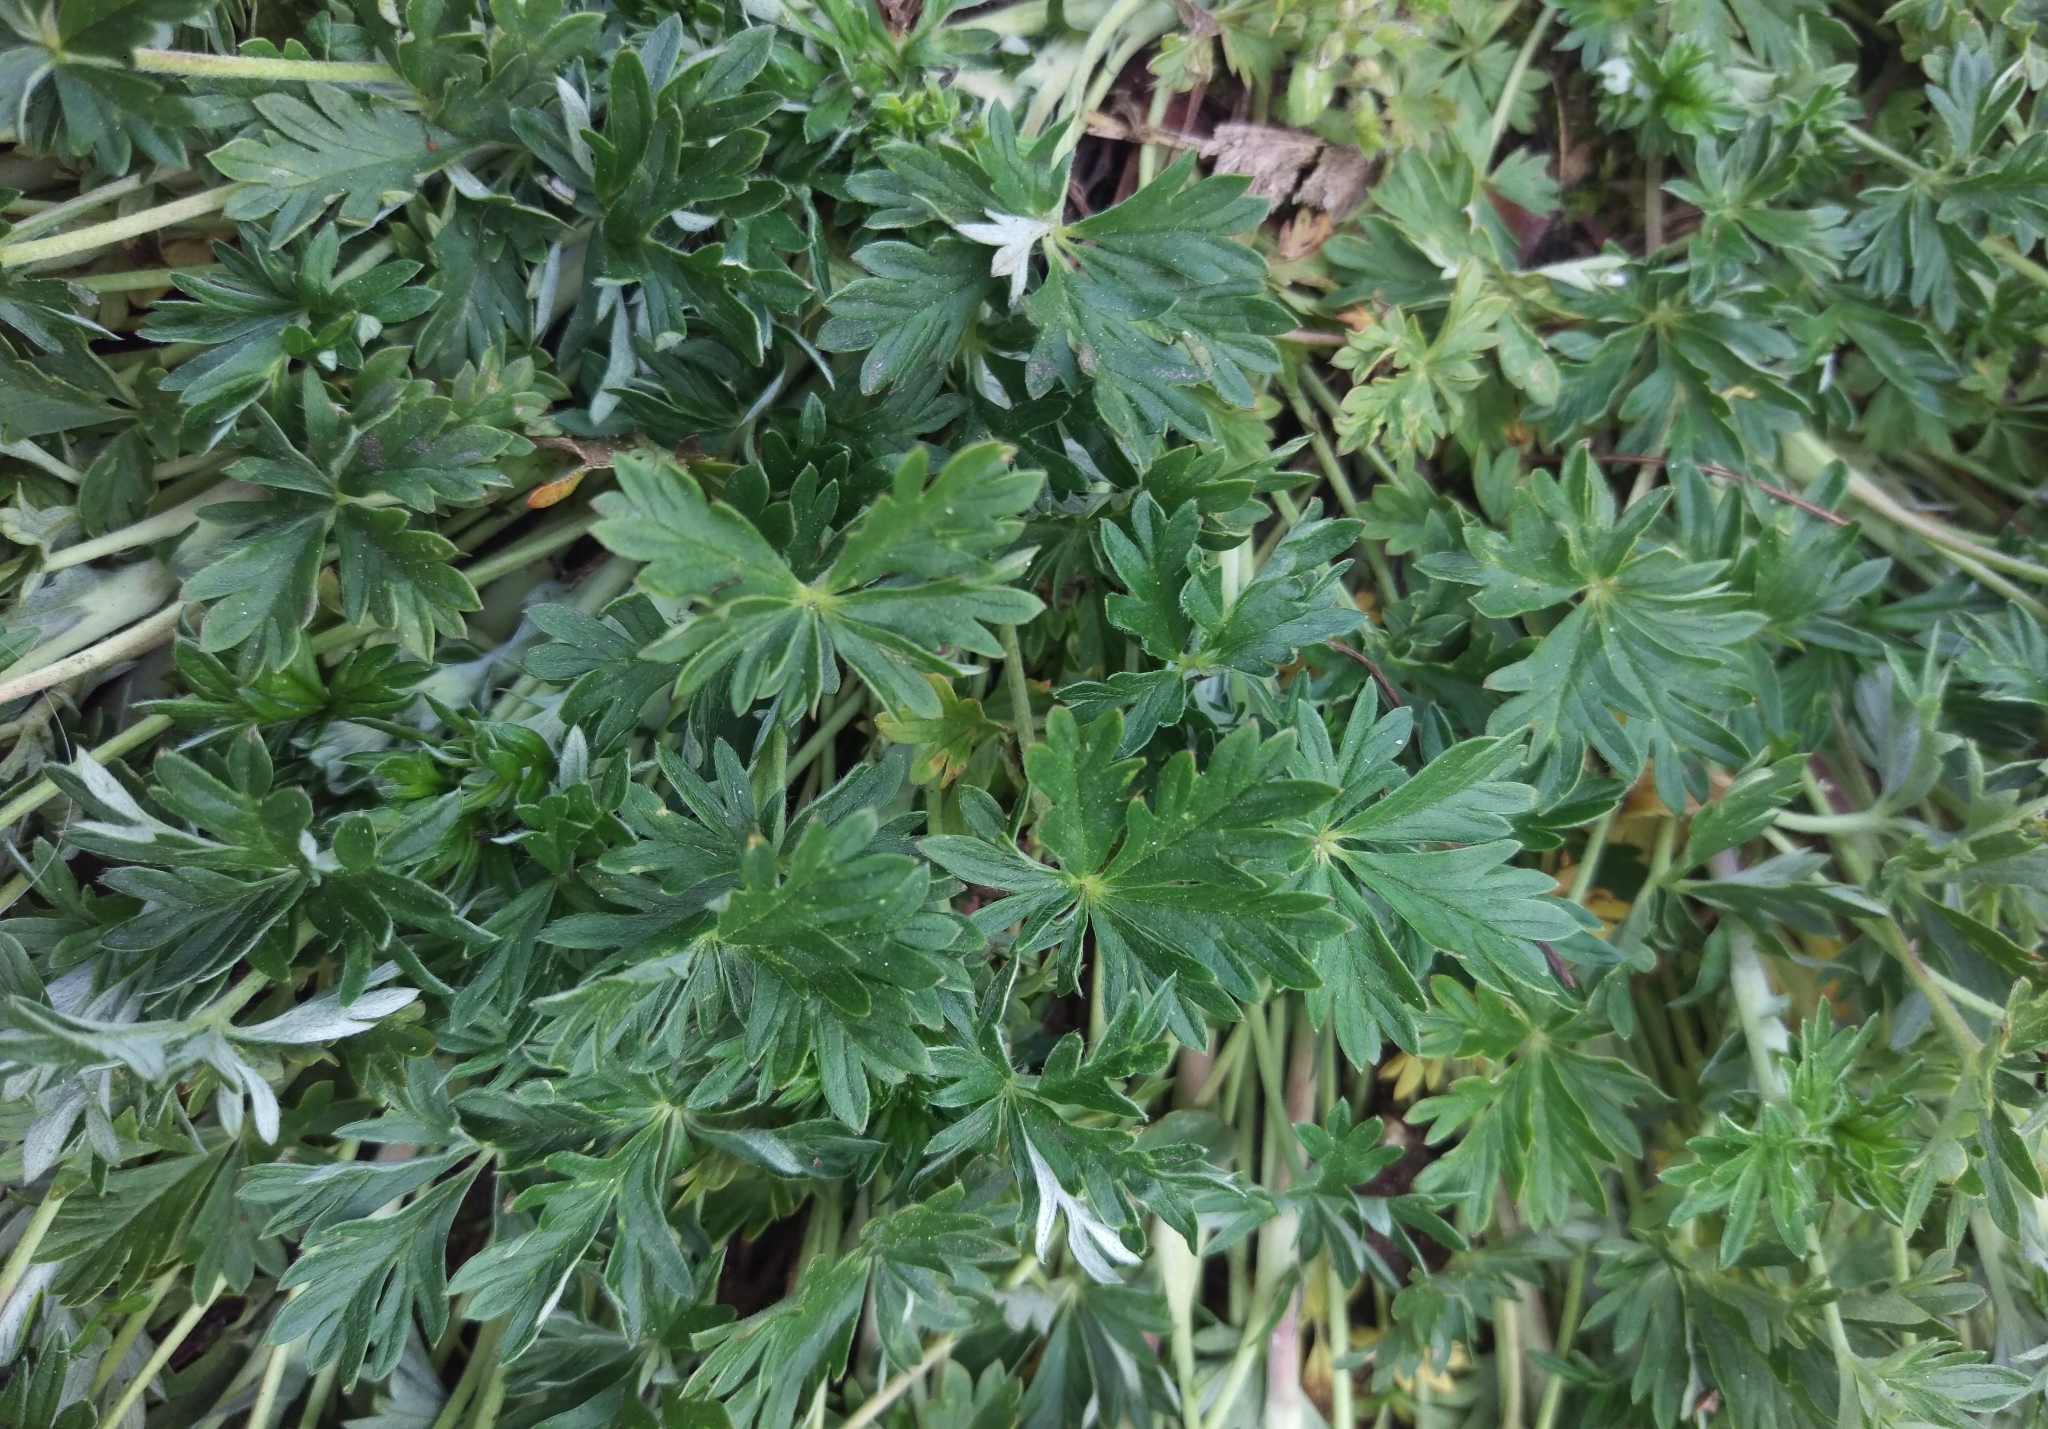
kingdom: Plantae
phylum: Tracheophyta
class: Magnoliopsida
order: Rosales
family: Rosaceae
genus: Potentilla
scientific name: Potentilla argentea
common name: Hoary cinquefoil
